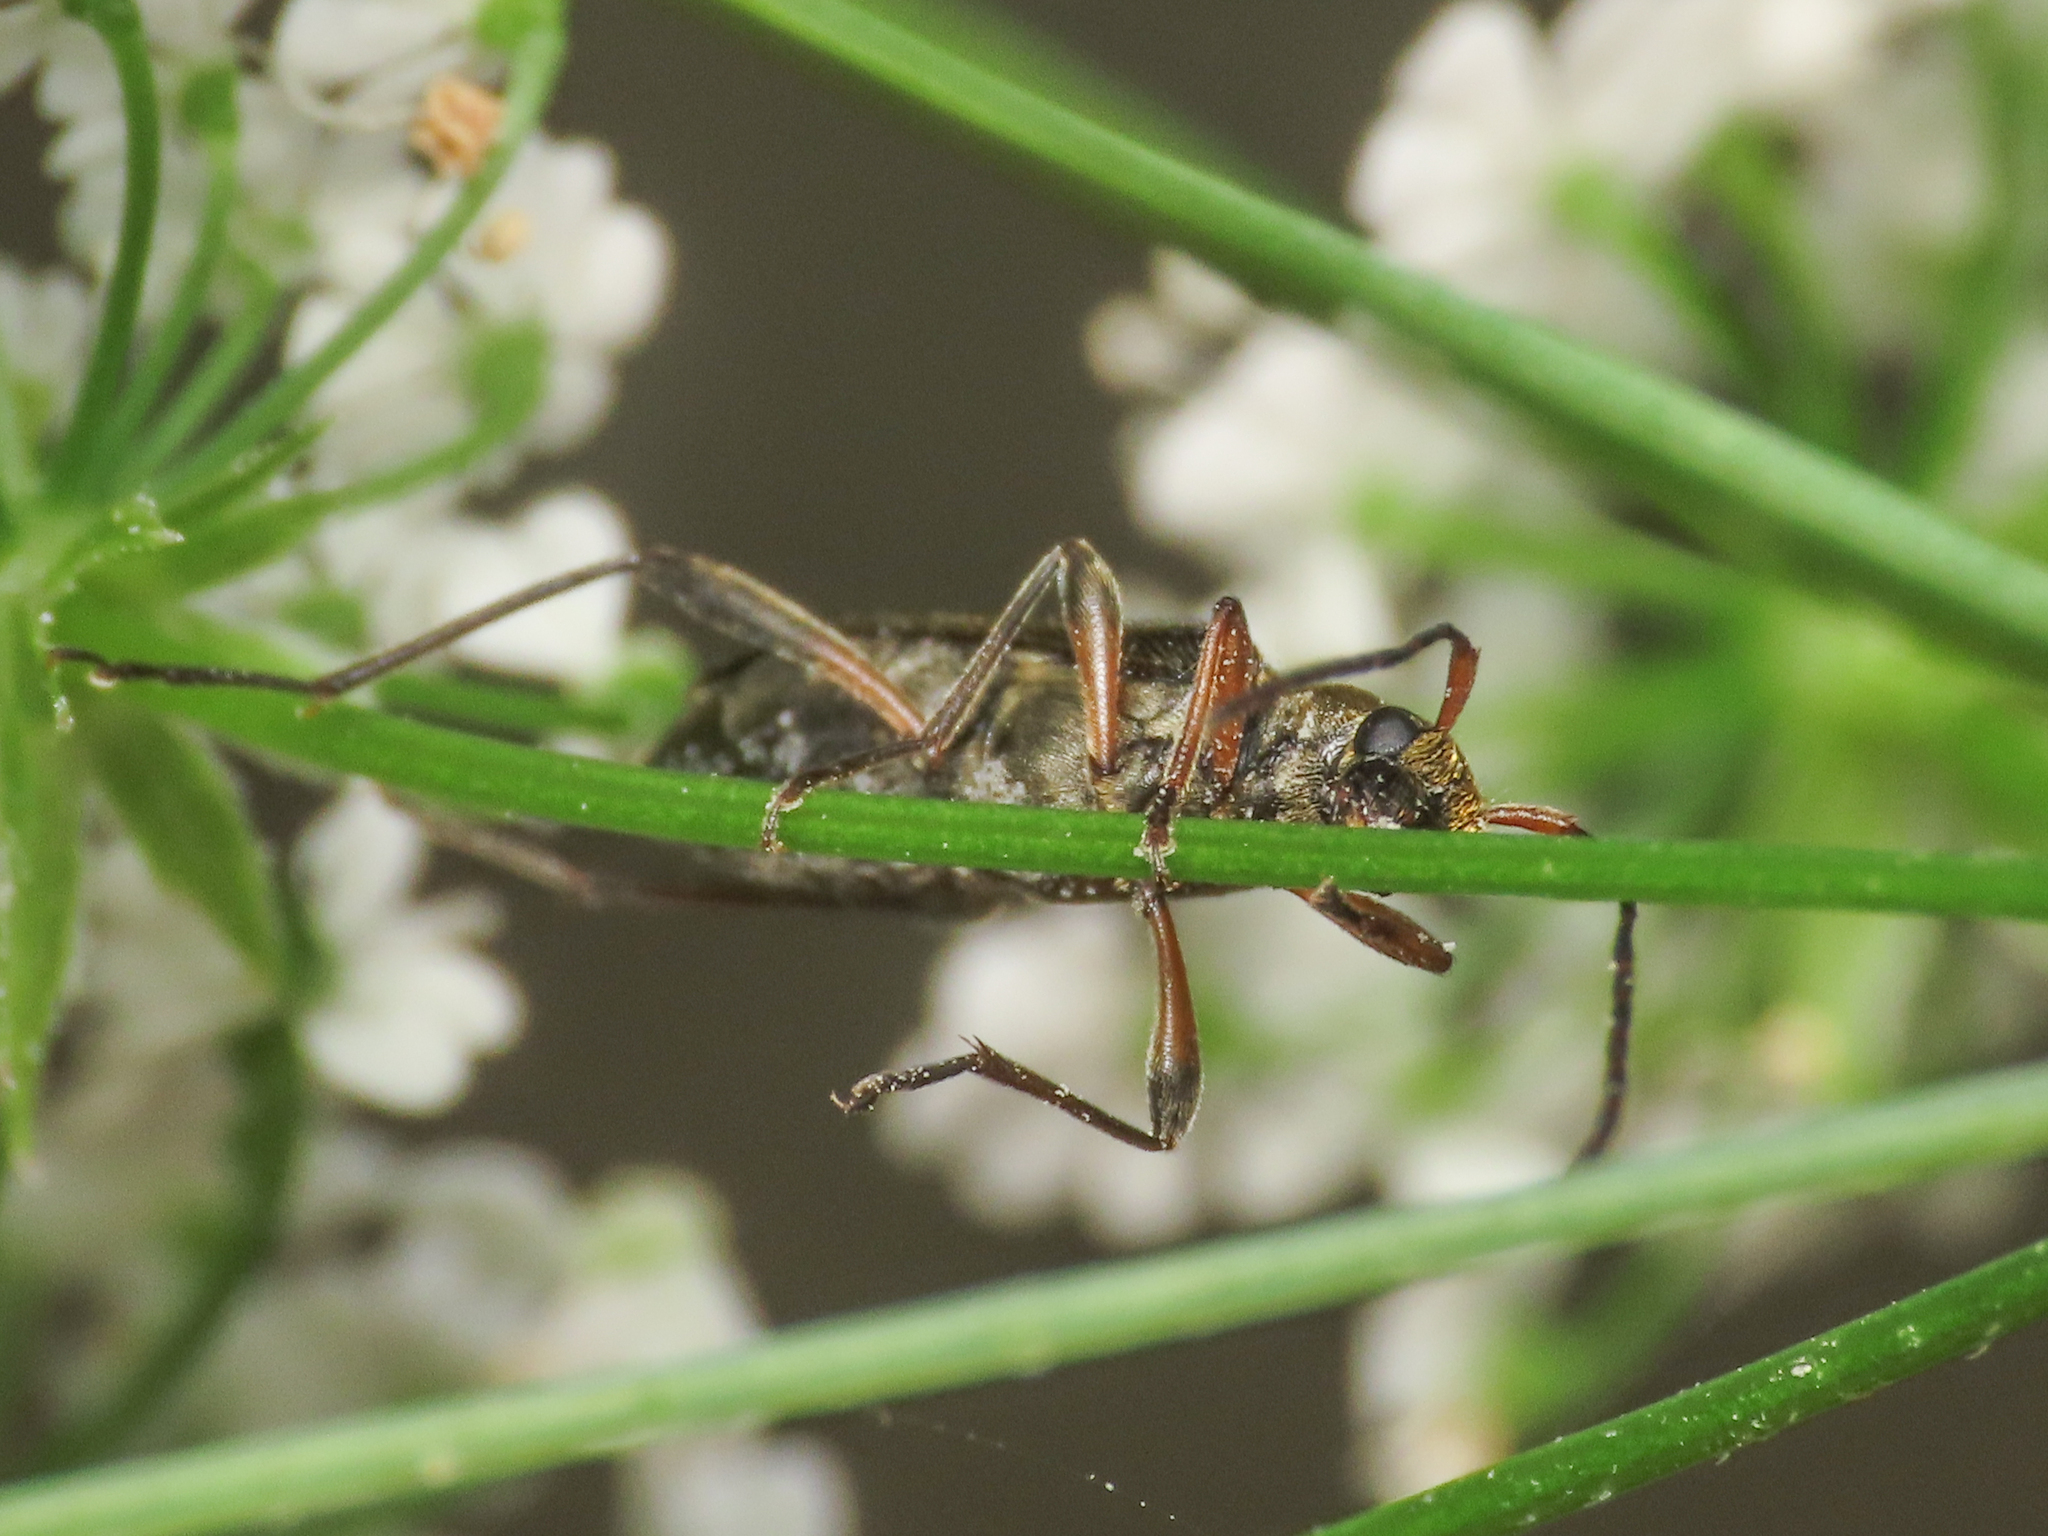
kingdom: Animalia
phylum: Arthropoda
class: Insecta
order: Coleoptera
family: Cerambycidae
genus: Grammoptera
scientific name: Grammoptera ruficornis
